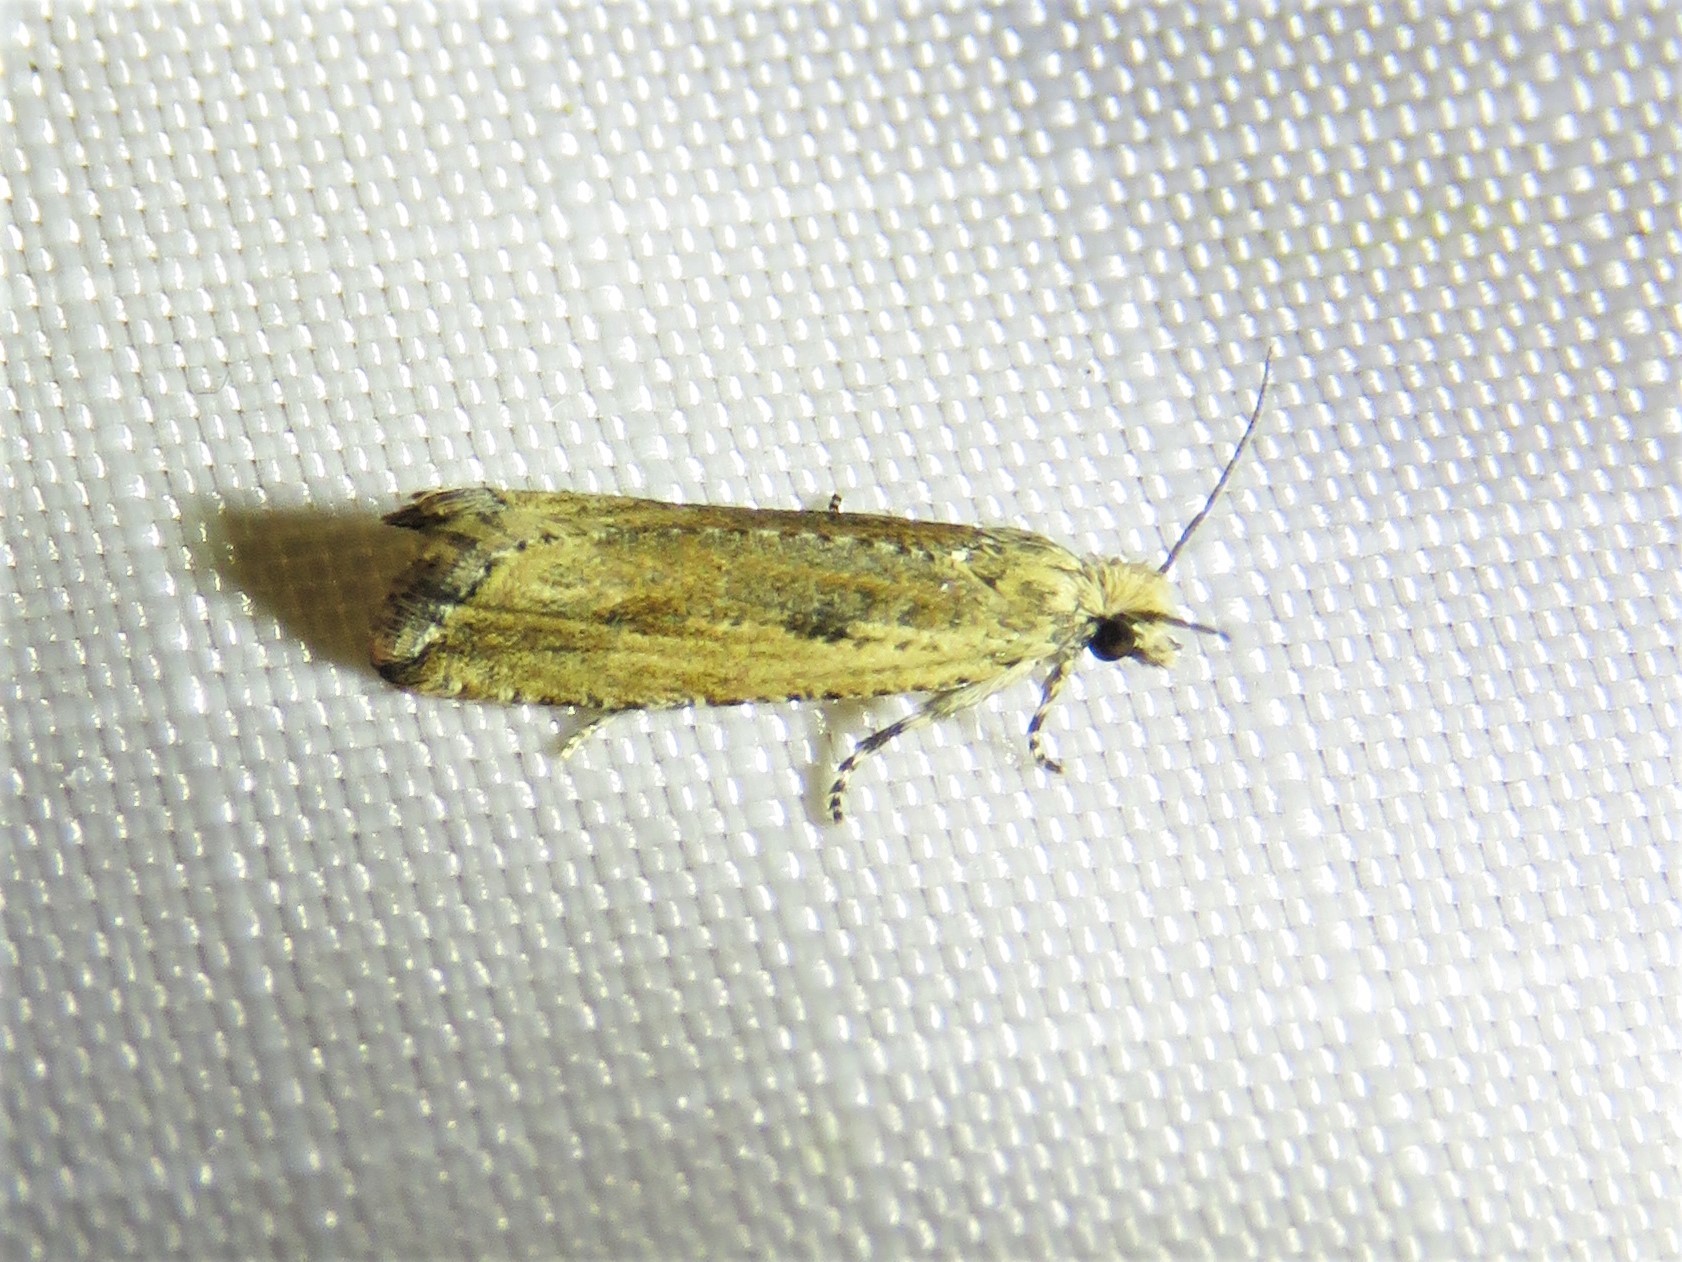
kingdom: Animalia
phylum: Arthropoda
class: Insecta
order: Lepidoptera
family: Tortricidae
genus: Bactra
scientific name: Bactra verutana
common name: Javelin moth
